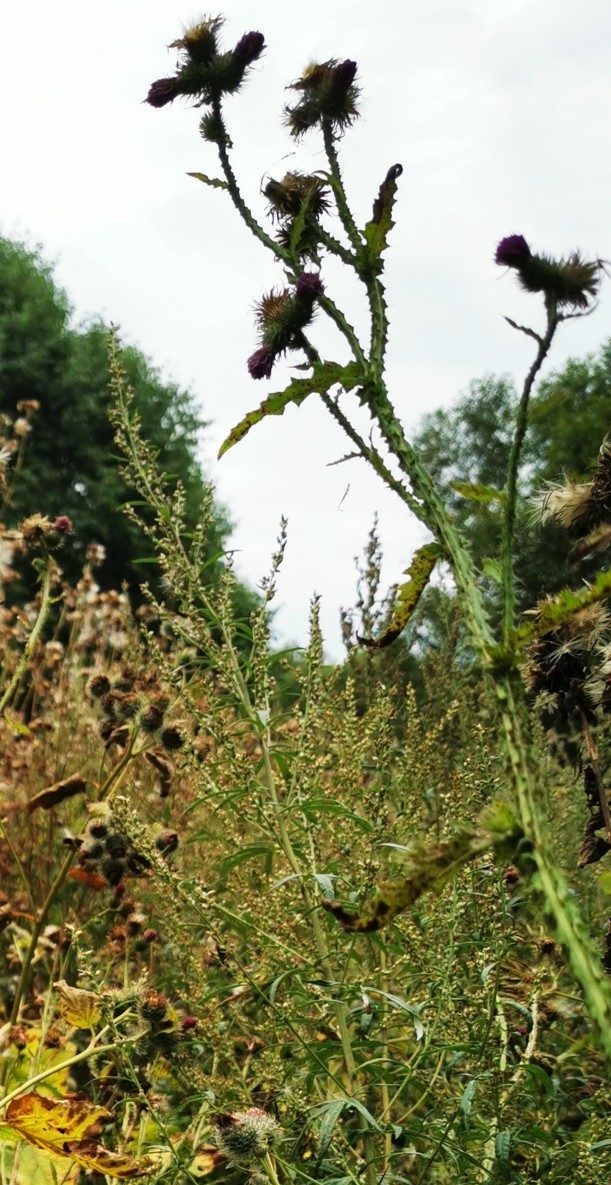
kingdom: Plantae
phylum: Tracheophyta
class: Magnoliopsida
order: Asterales
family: Asteraceae
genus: Carduus
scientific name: Carduus crispus
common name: Welted thistle
